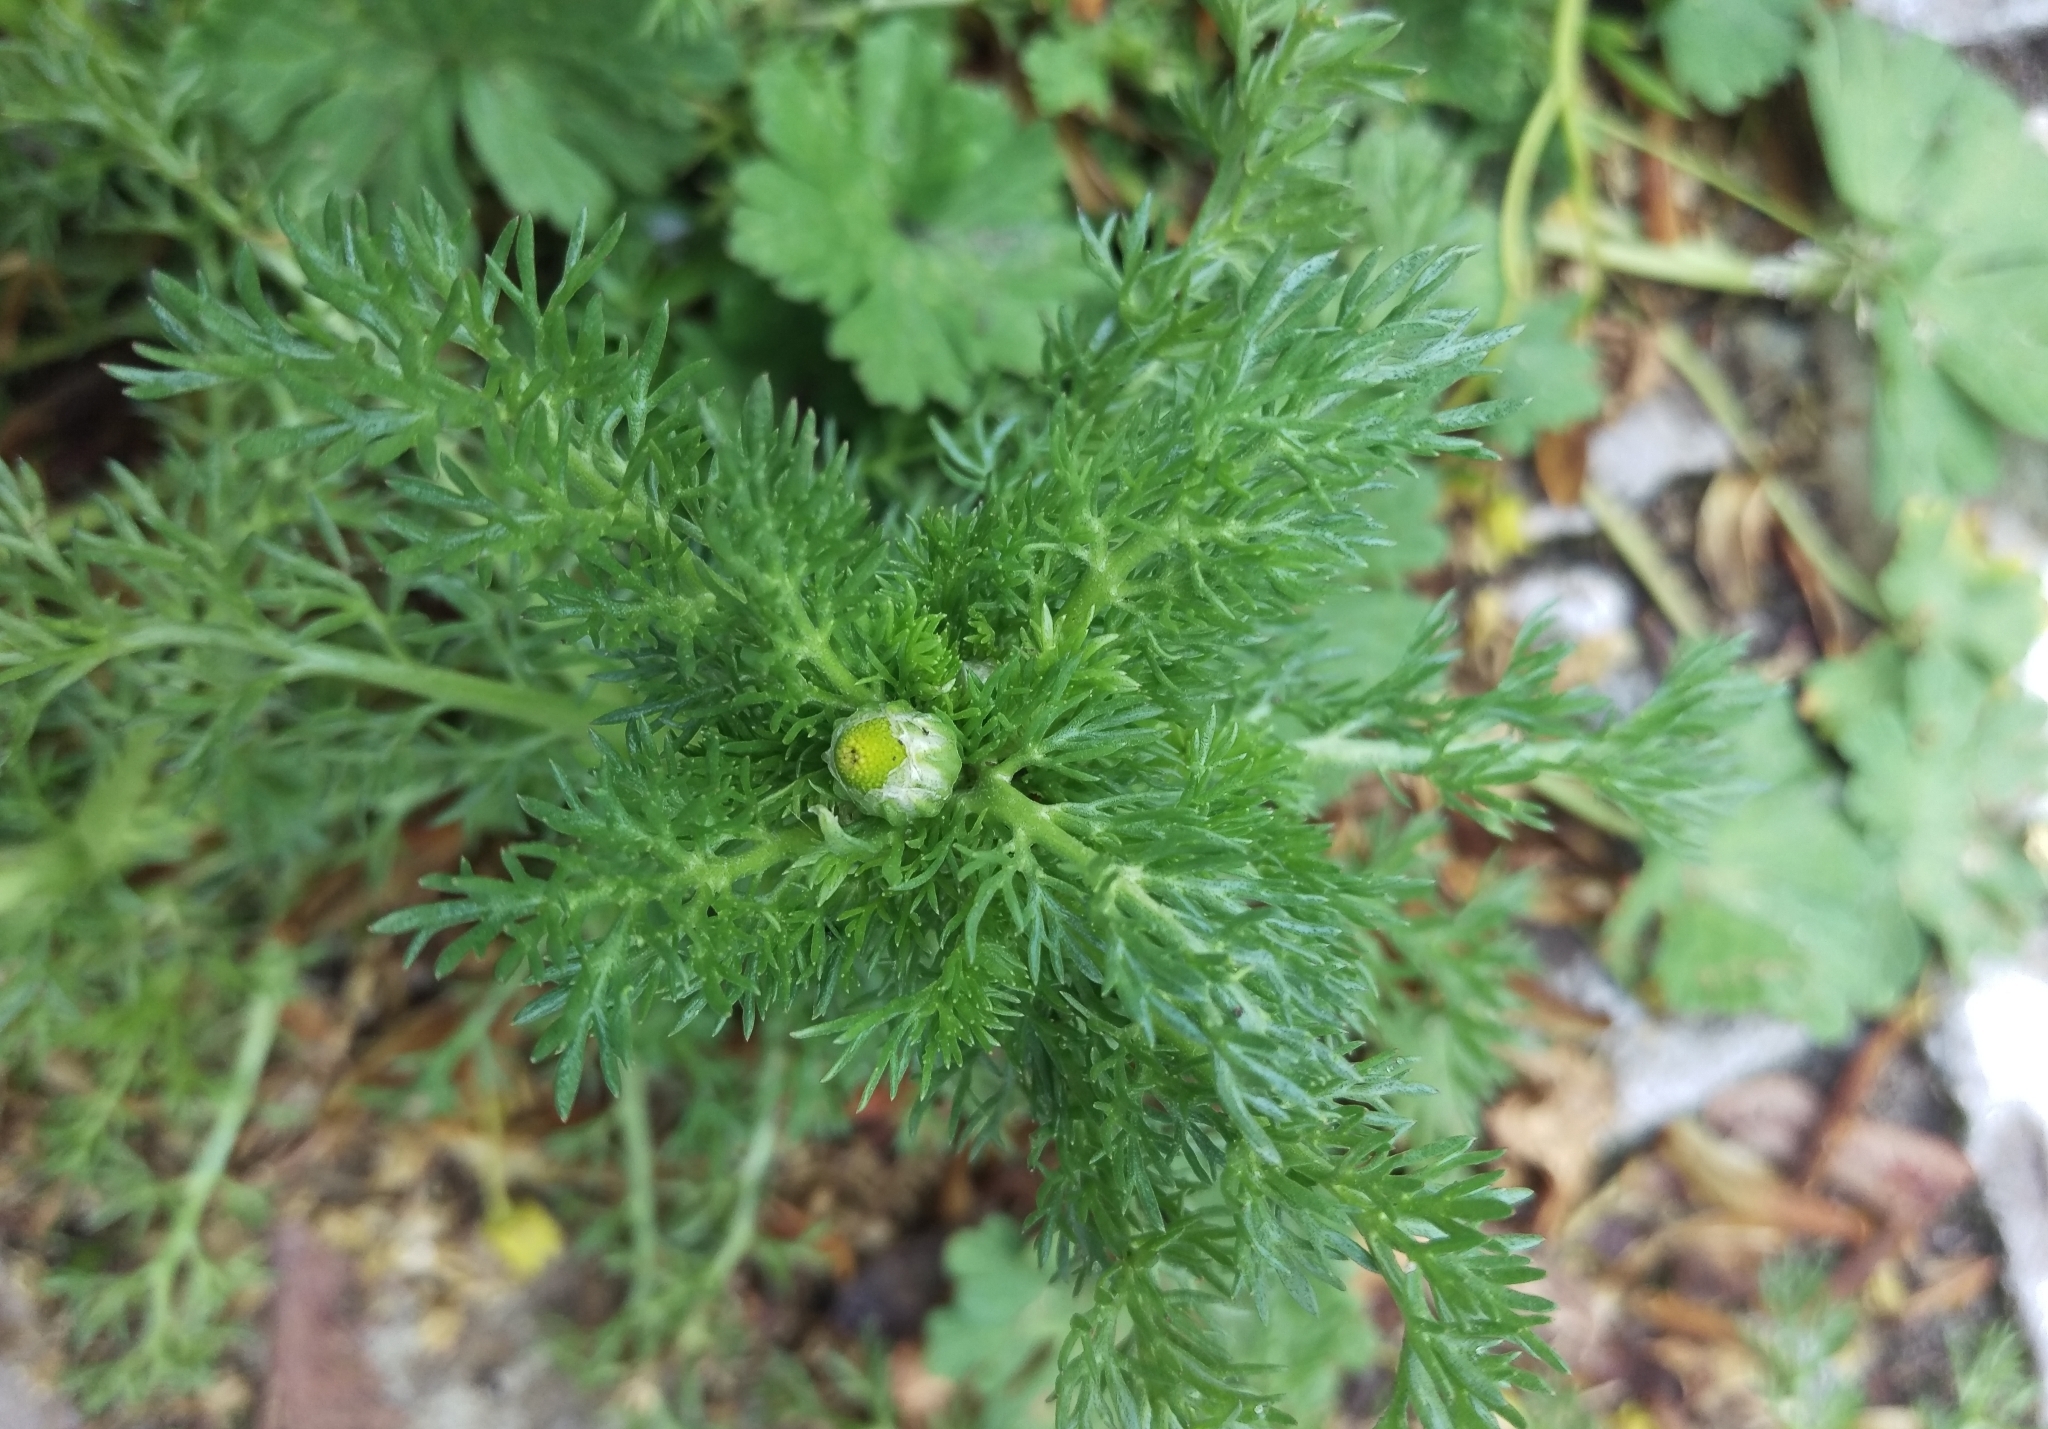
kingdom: Plantae
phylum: Tracheophyta
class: Magnoliopsida
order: Asterales
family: Asteraceae
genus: Matricaria
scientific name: Matricaria discoidea
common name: Disc mayweed
